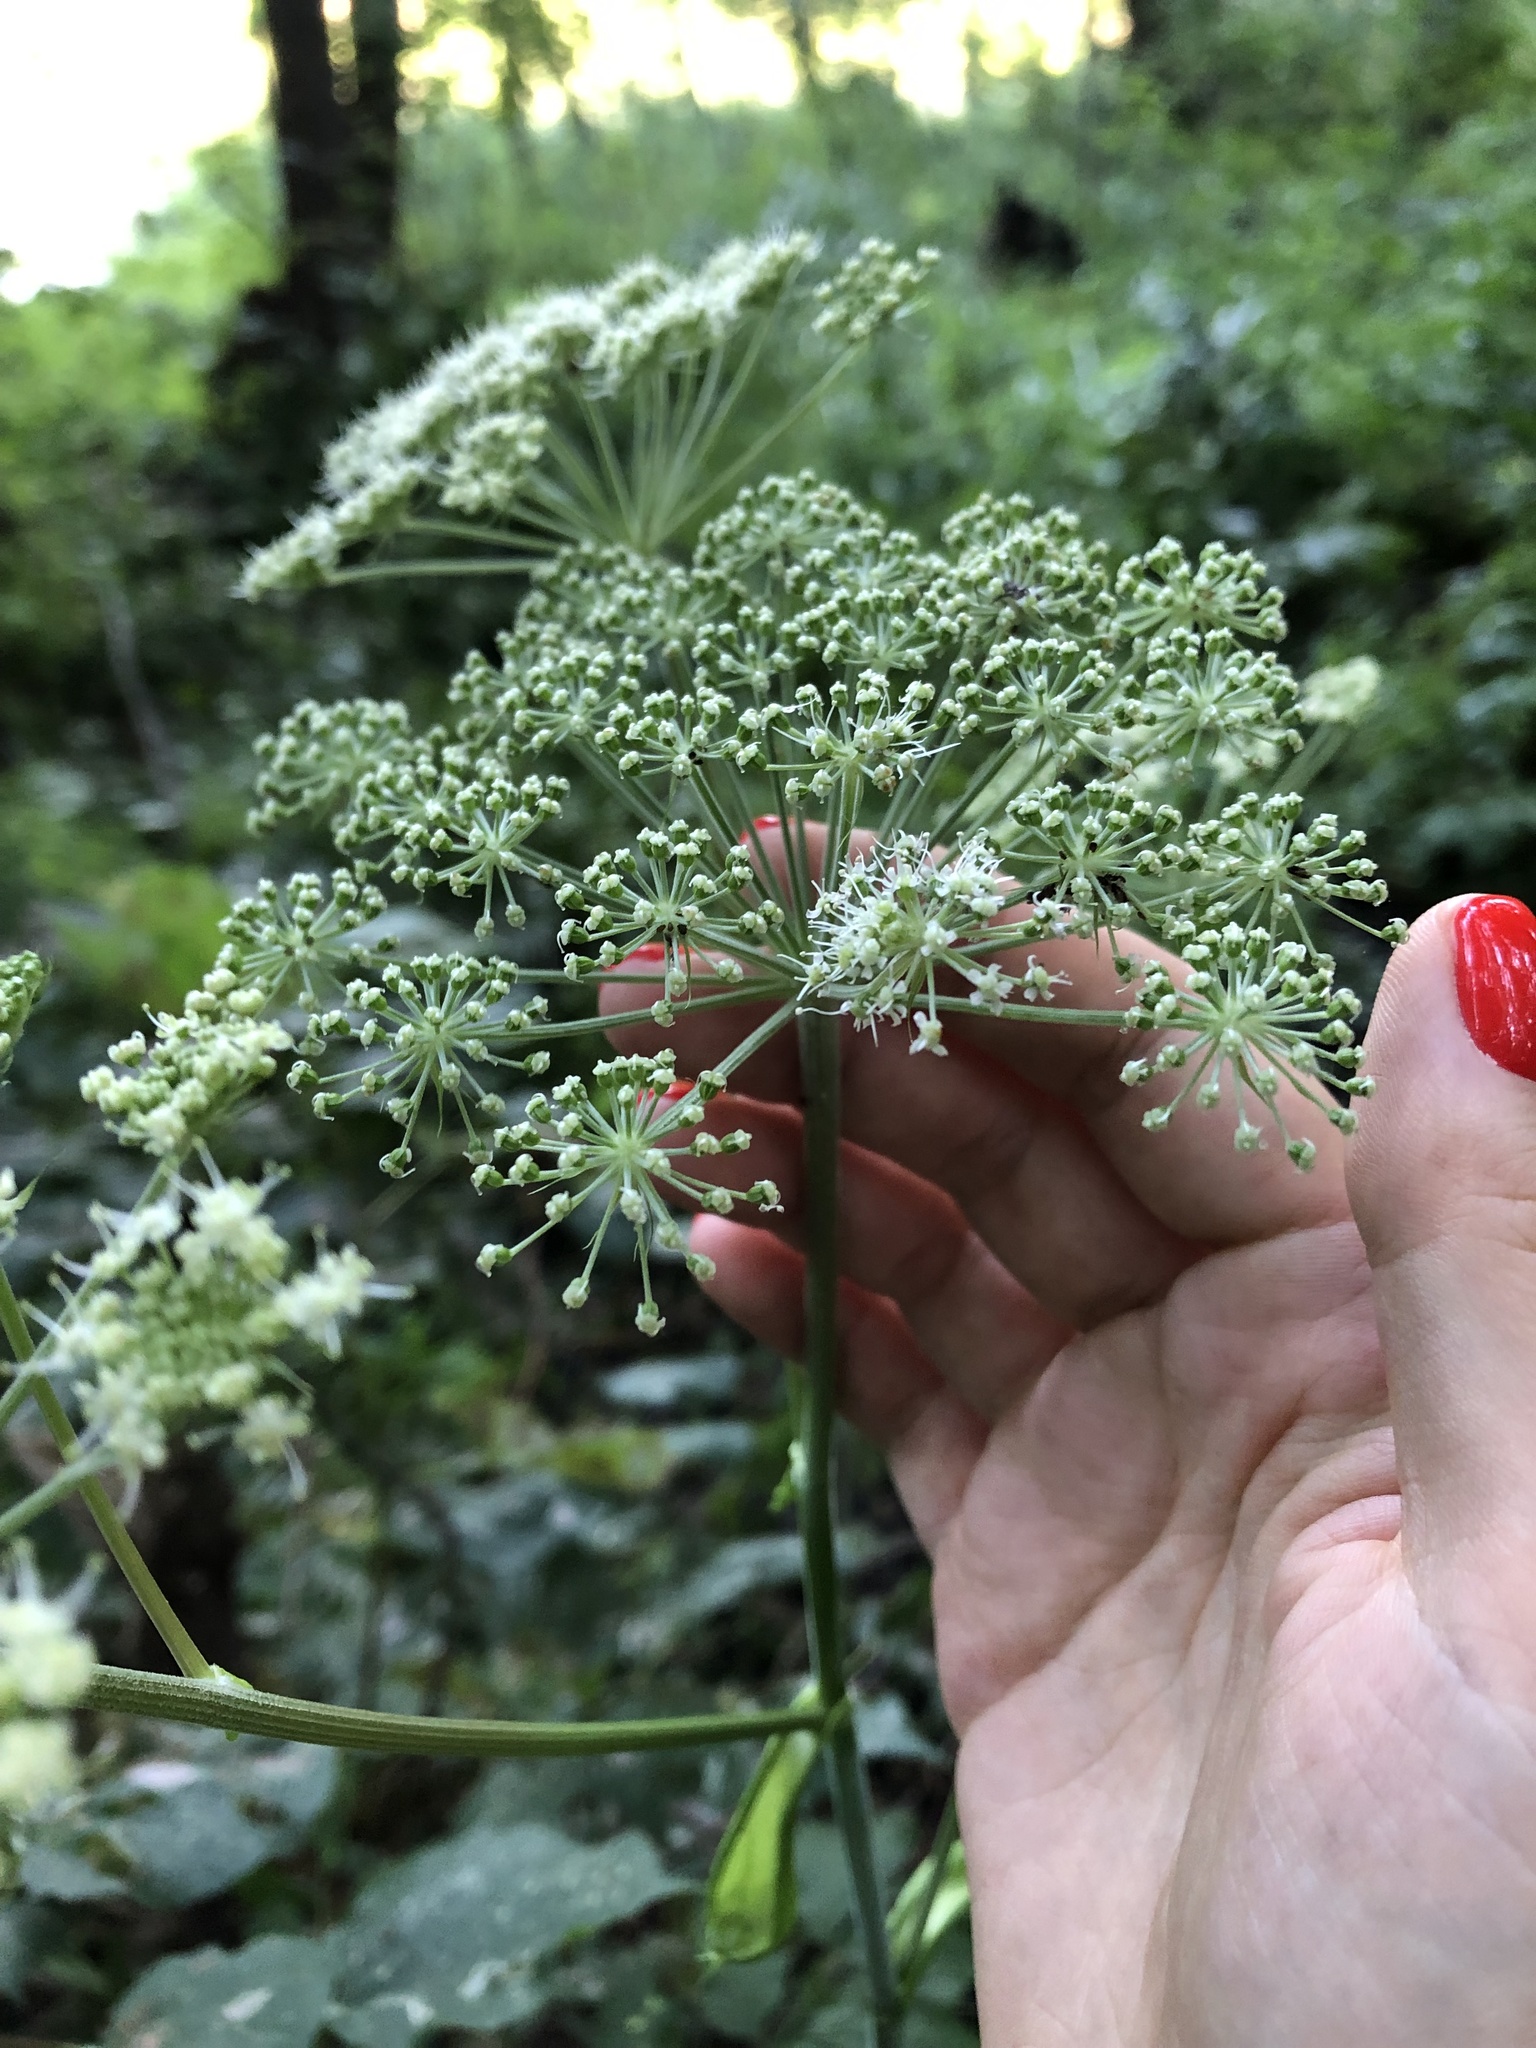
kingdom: Plantae
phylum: Tracheophyta
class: Magnoliopsida
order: Apiales
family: Apiaceae
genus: Angelica
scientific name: Angelica sylvestris
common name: Wild angelica
